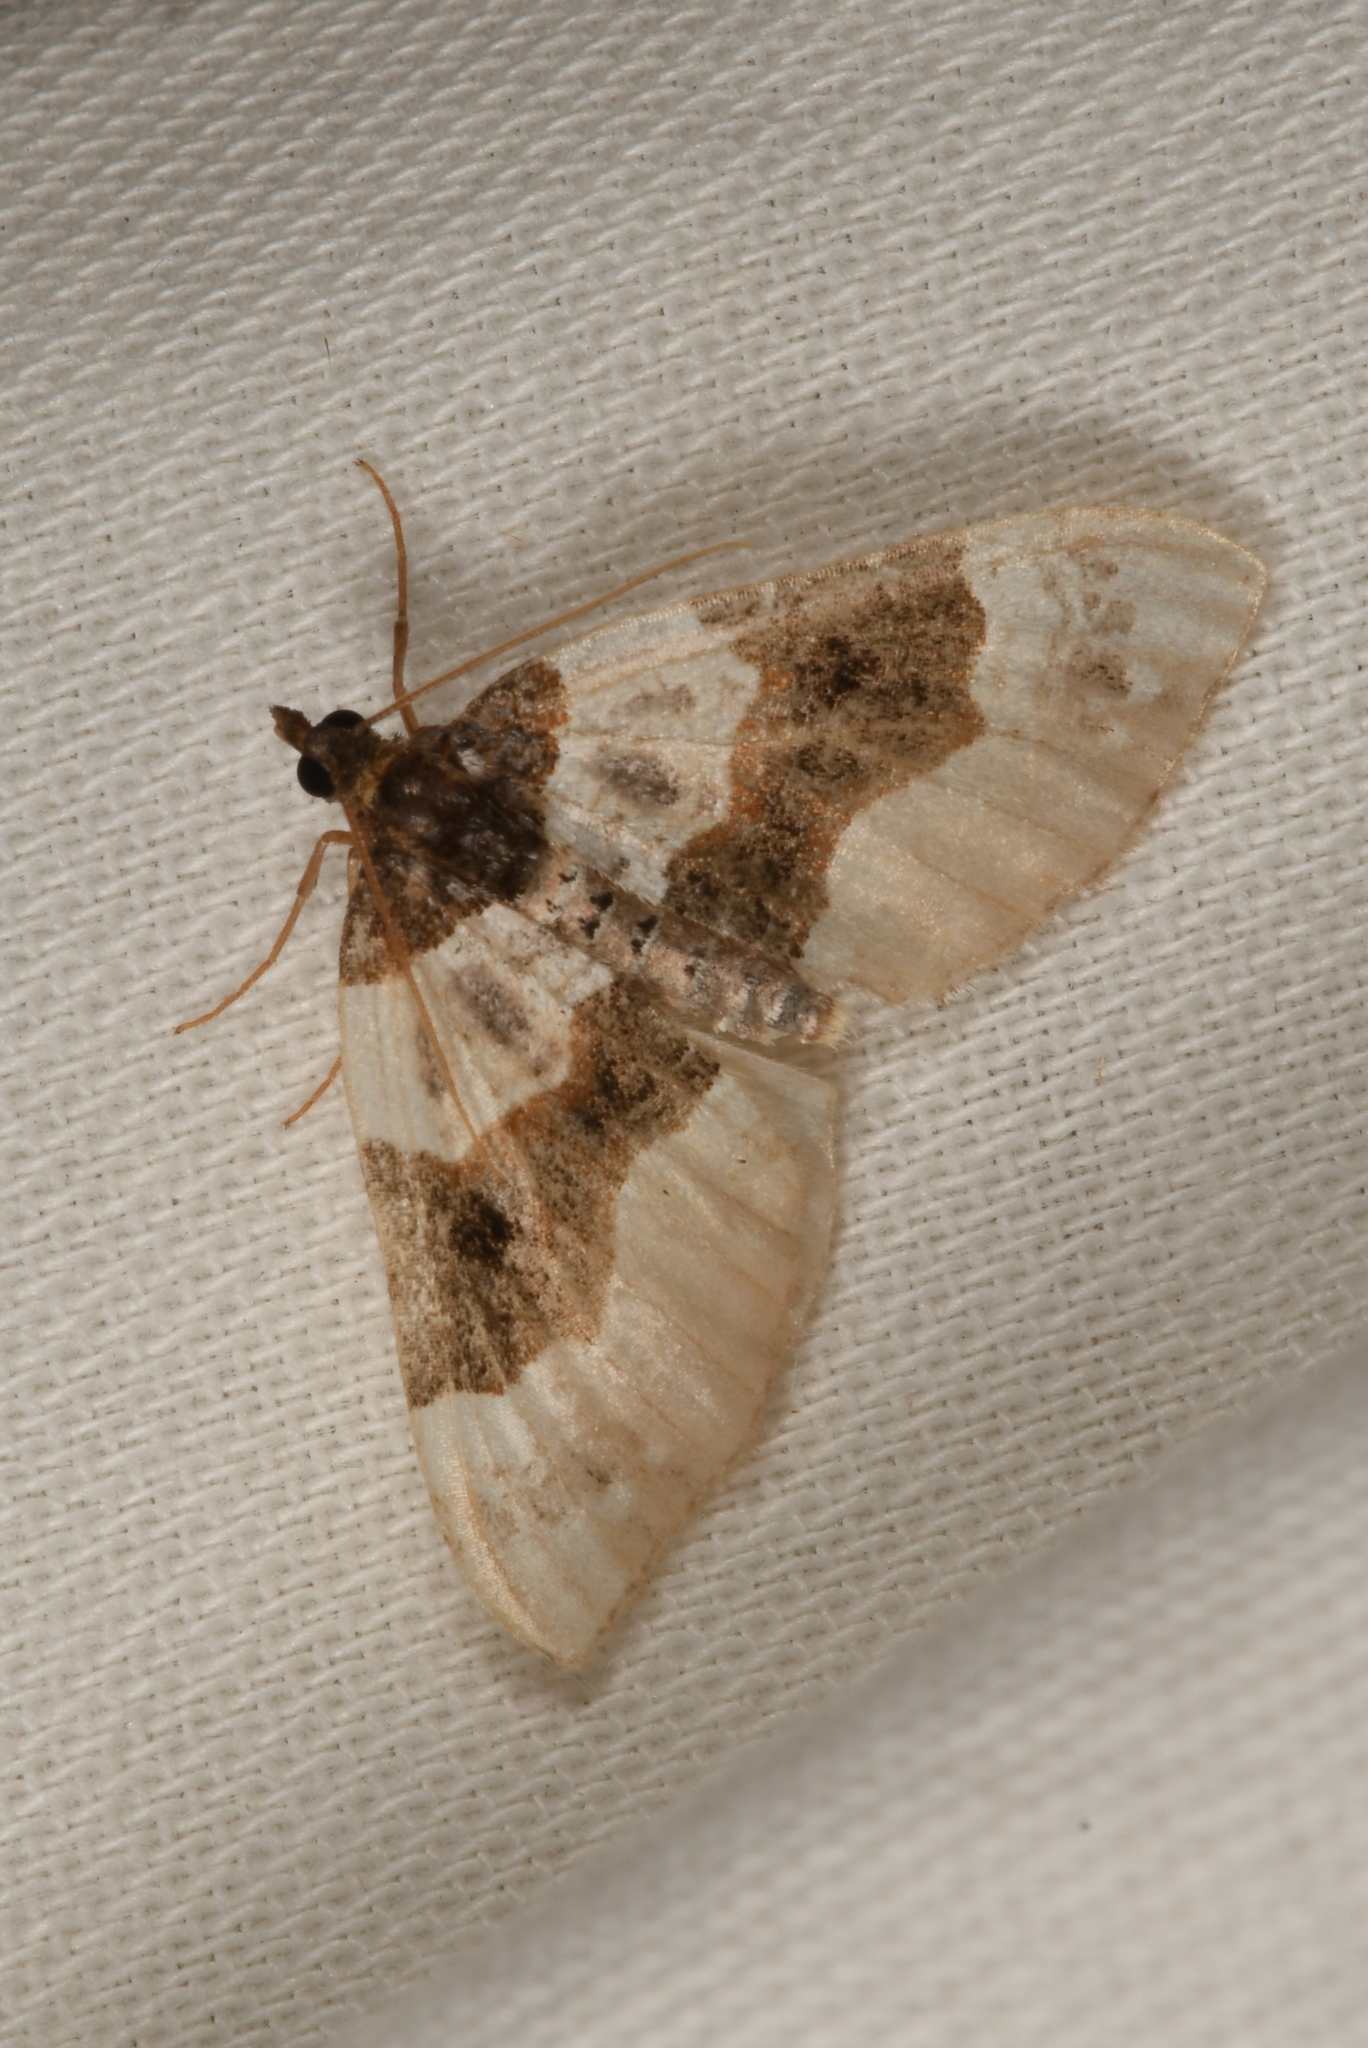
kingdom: Animalia
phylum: Arthropoda
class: Insecta
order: Lepidoptera
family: Geometridae
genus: Cosmorhoe
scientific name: Cosmorhoe ocellata
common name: Purple bar
